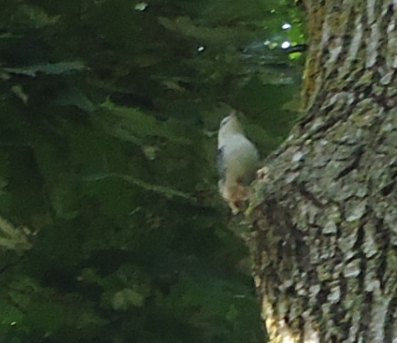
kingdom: Animalia
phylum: Chordata
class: Aves
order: Passeriformes
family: Sittidae
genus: Sitta
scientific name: Sitta carolinensis
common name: White-breasted nuthatch
